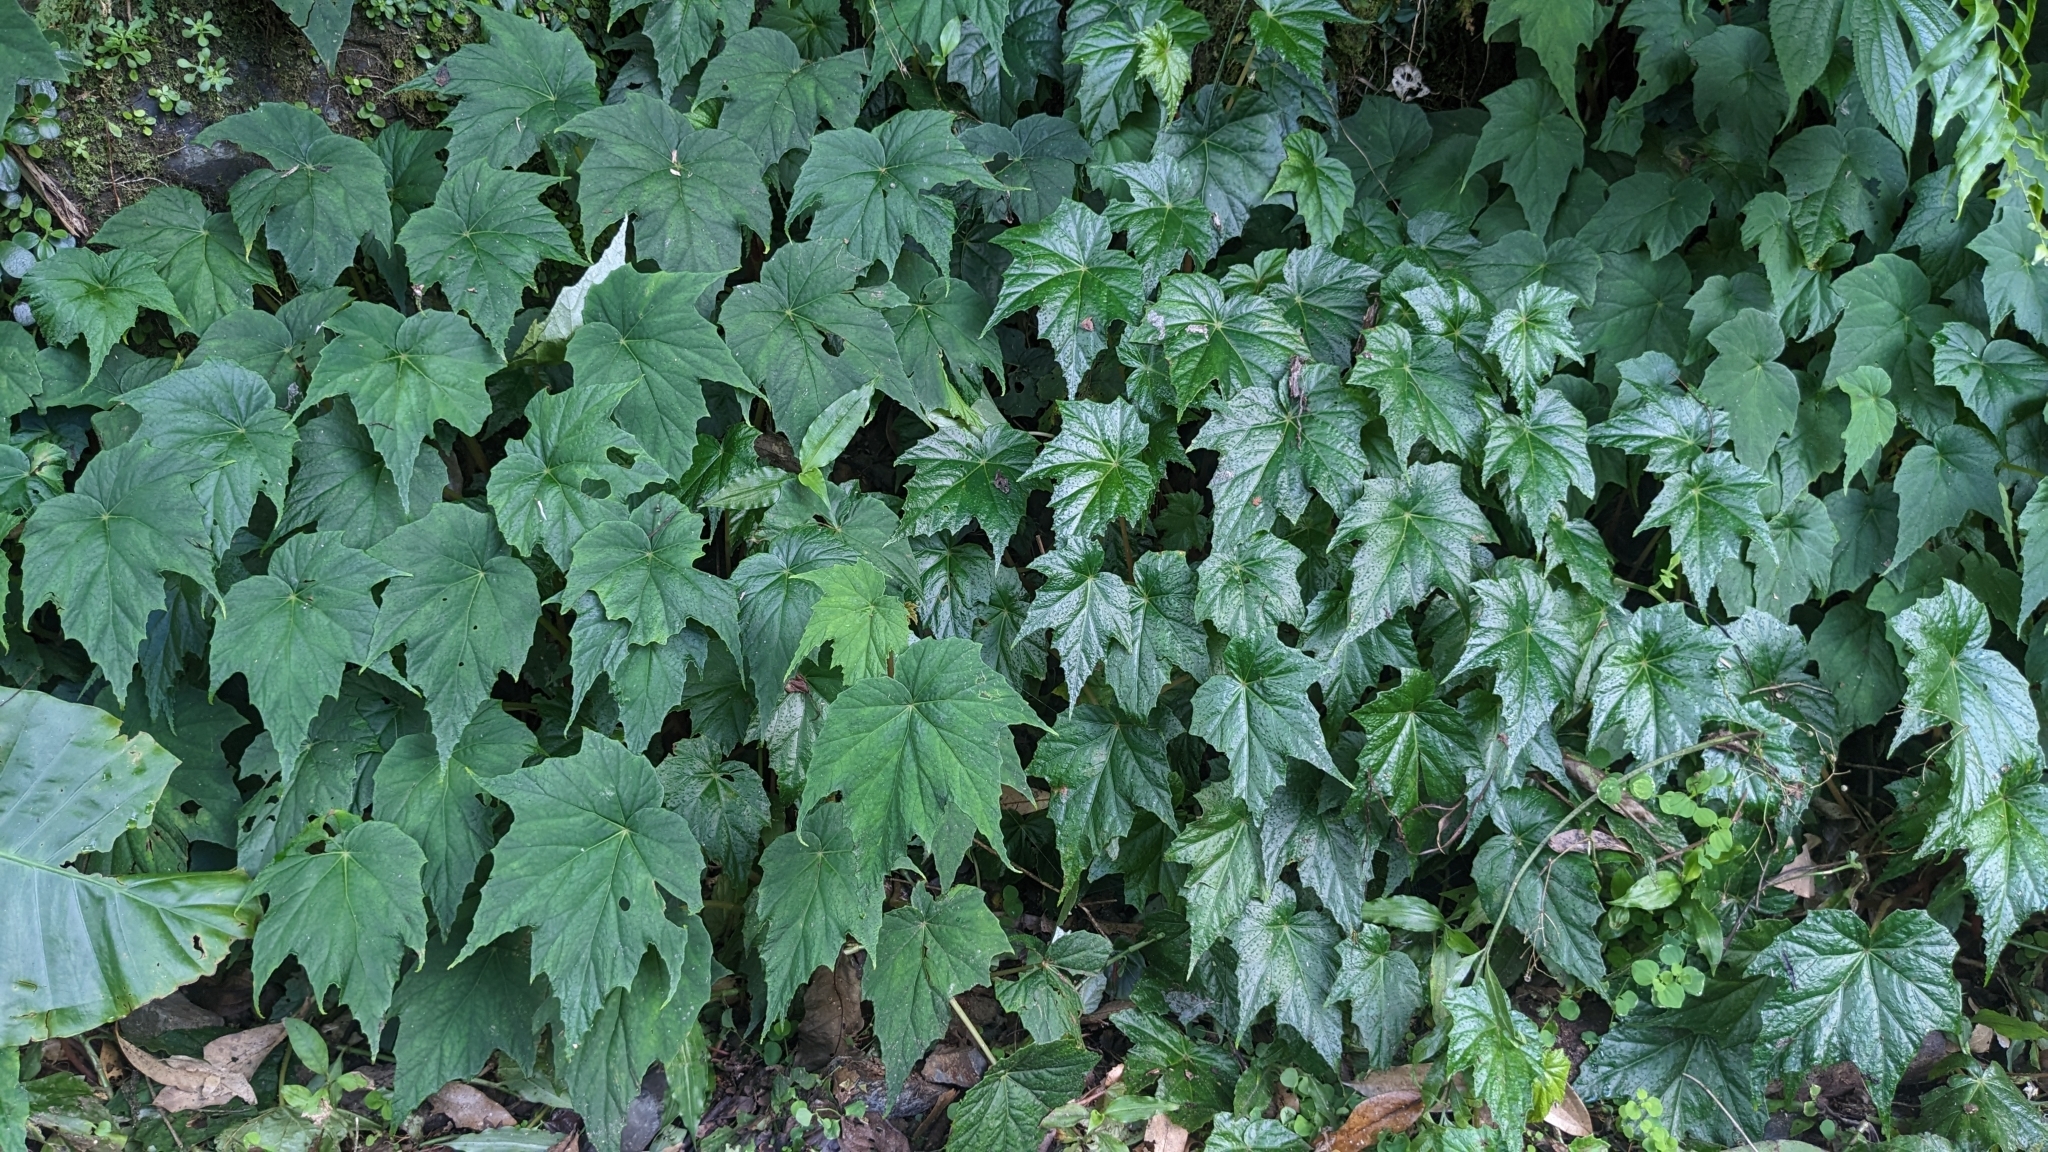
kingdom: Plantae
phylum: Tracheophyta
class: Magnoliopsida
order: Cucurbitales
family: Begoniaceae
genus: Begonia
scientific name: Begonia formosana
